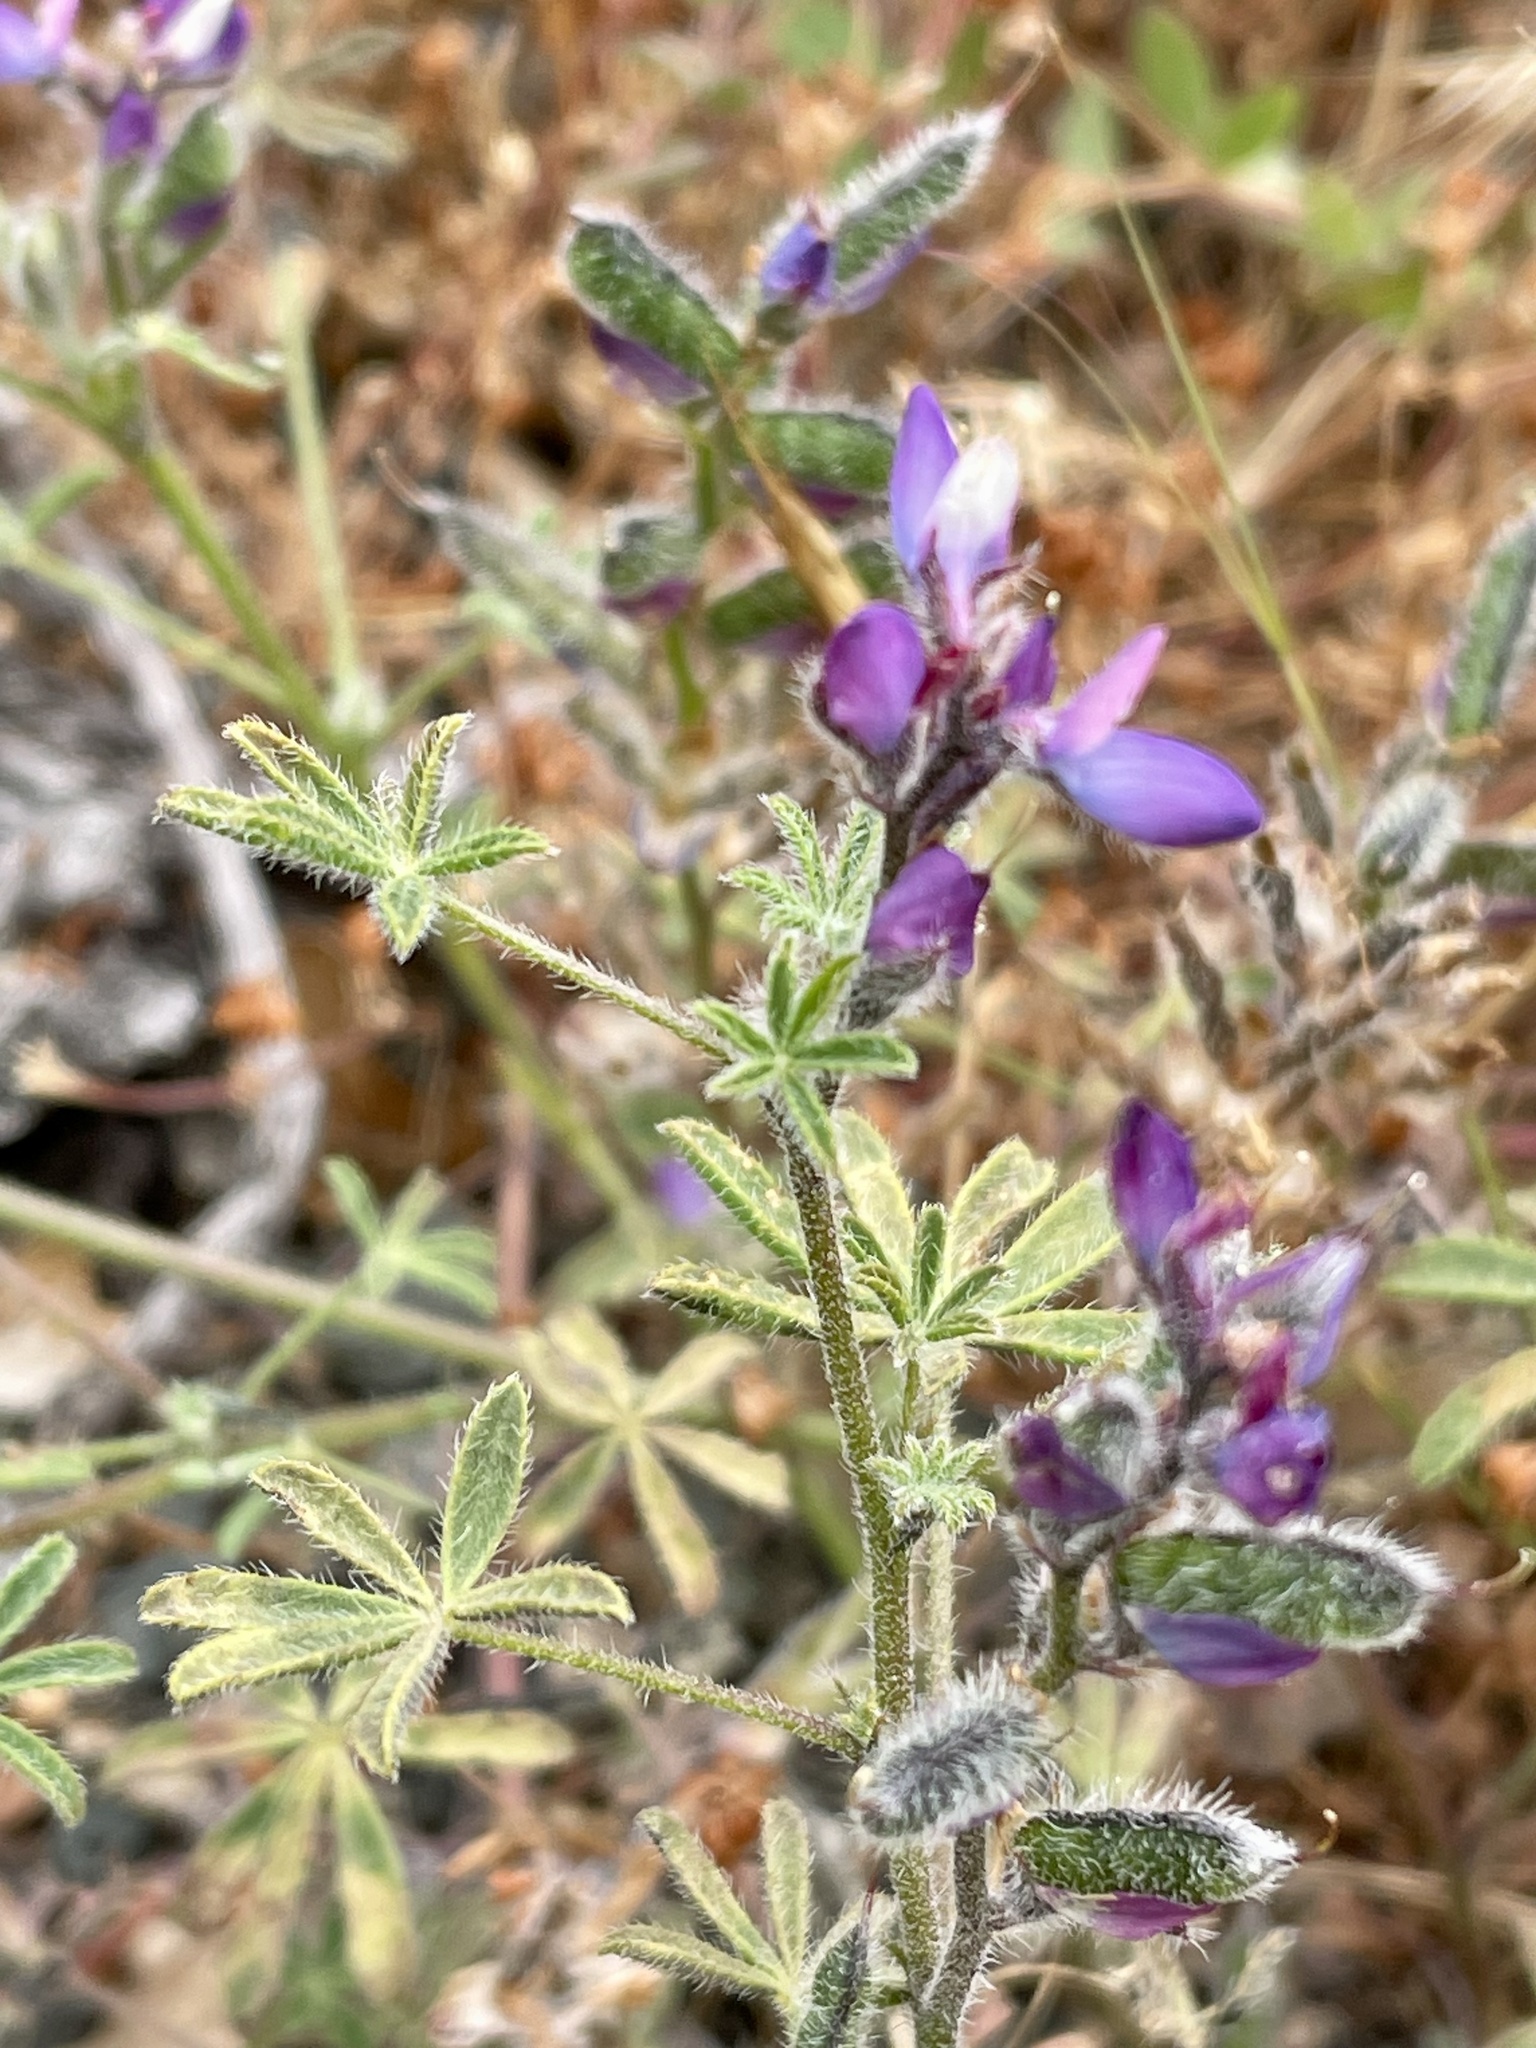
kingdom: Plantae
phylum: Tracheophyta
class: Magnoliopsida
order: Fabales
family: Fabaceae
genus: Lupinus
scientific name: Lupinus concinnus
